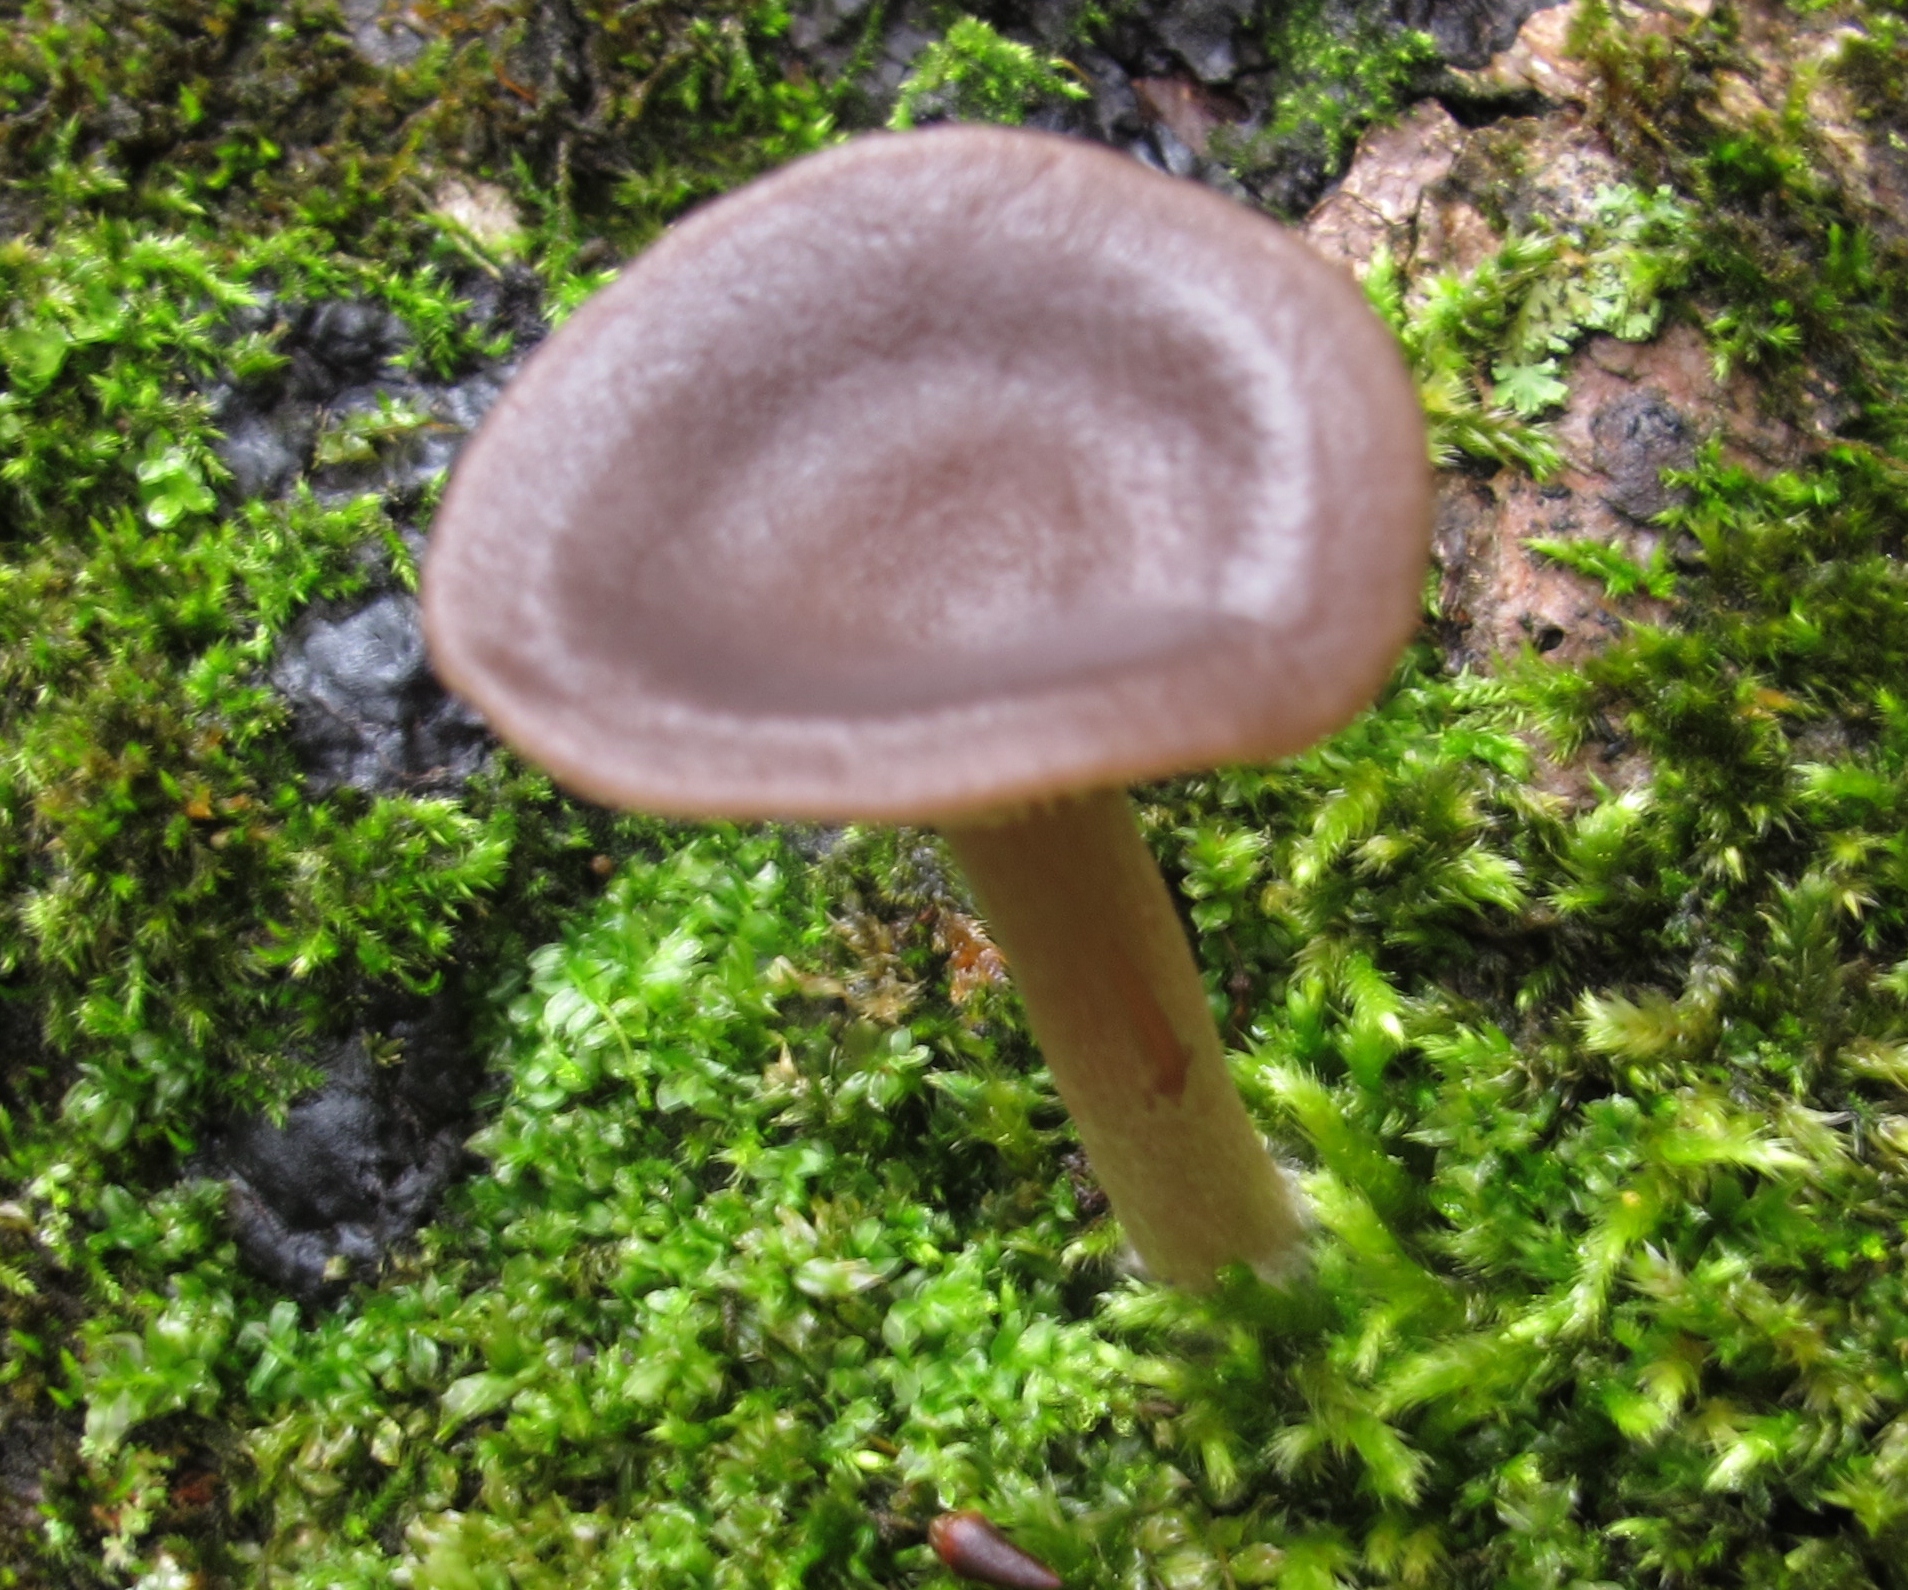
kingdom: Fungi
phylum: Basidiomycota
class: Agaricomycetes
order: Agaricales
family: Pseudoclitocybaceae
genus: Pseudoclitocybe
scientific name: Pseudoclitocybe cyathiformis
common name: Goblet
